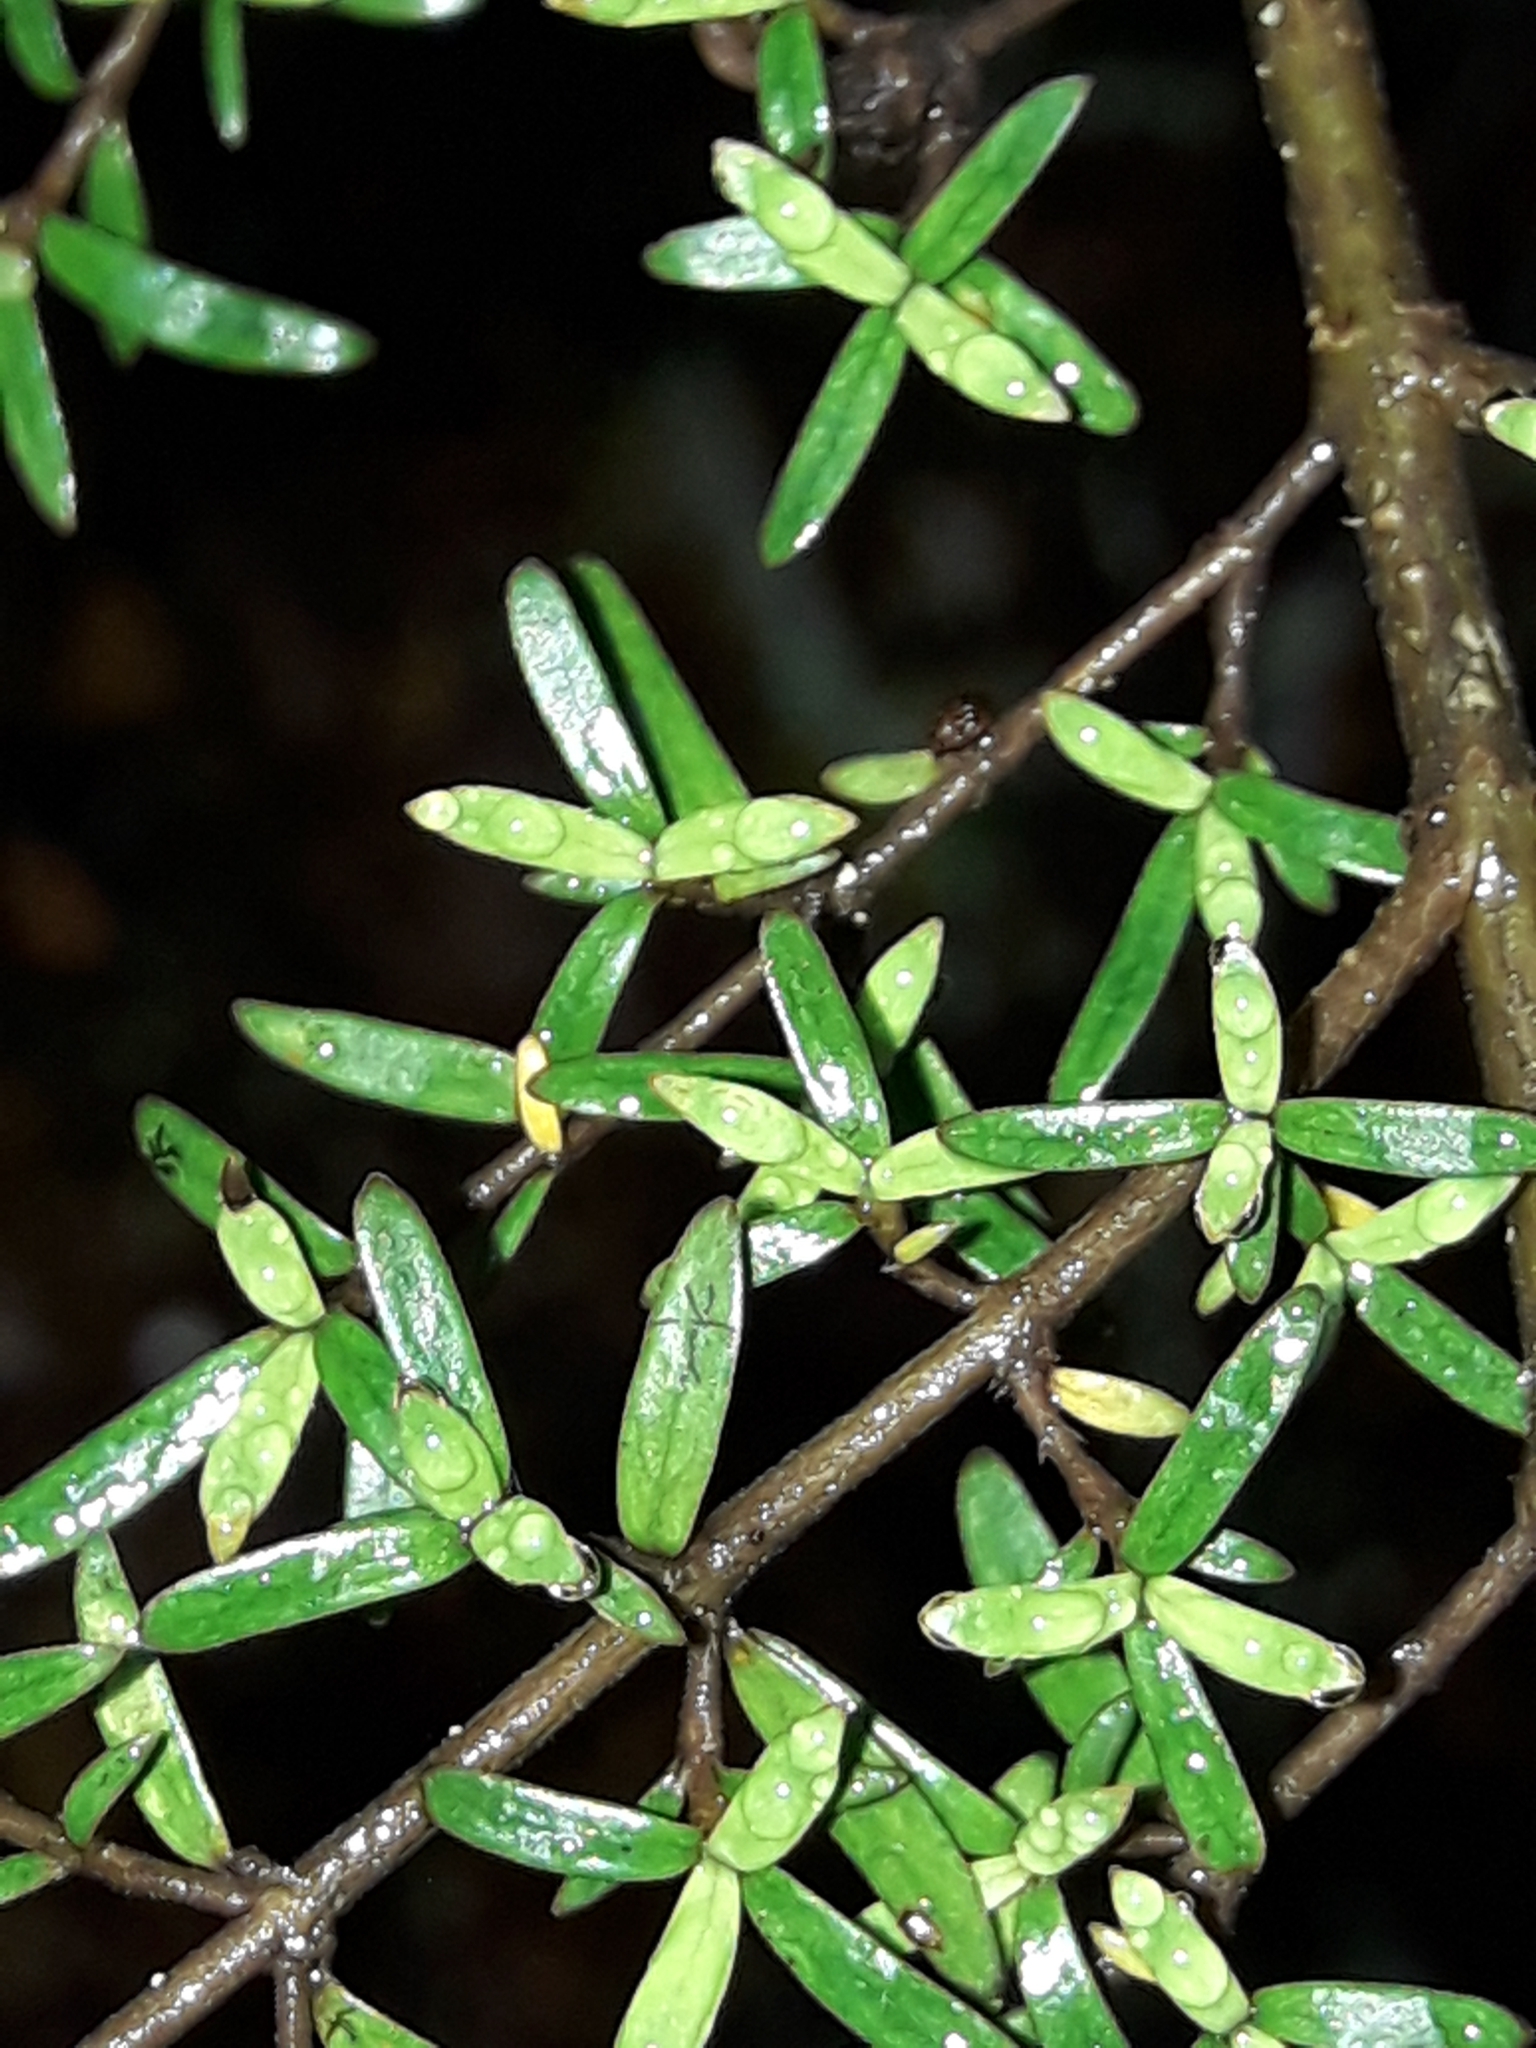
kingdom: Plantae
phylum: Tracheophyta
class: Magnoliopsida
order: Gentianales
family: Rubiaceae
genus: Coprosma
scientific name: Coprosma microcarpa
